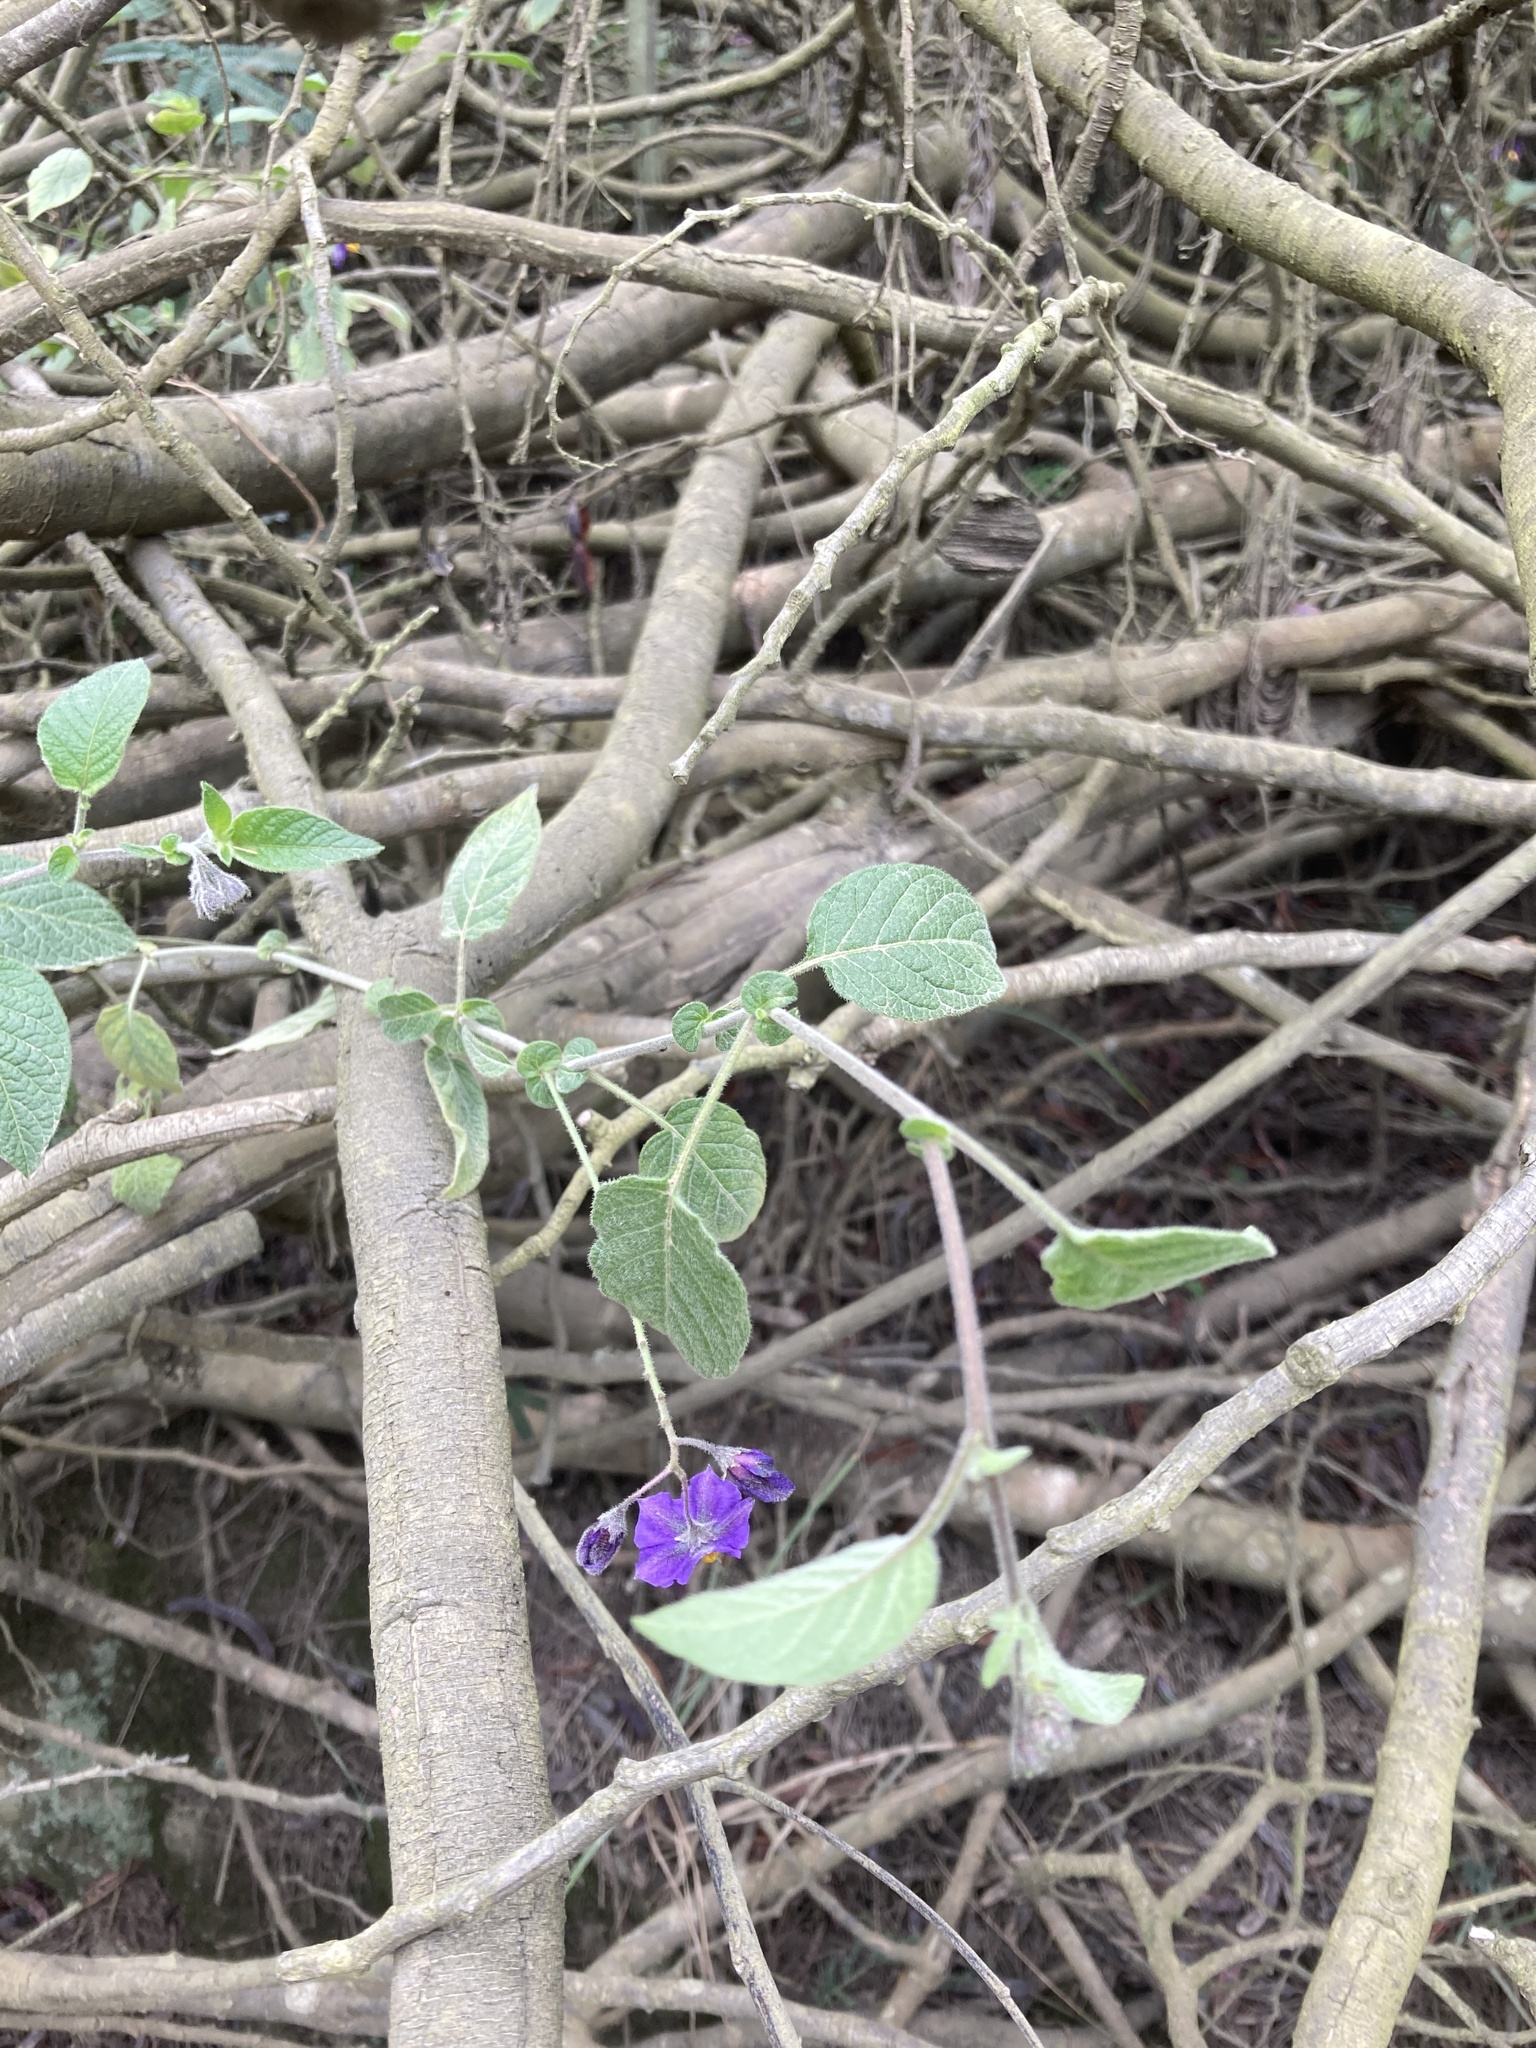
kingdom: Plantae
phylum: Tracheophyta
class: Magnoliopsida
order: Solanales
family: Solanaceae
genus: Solanum
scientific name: Solanum caripense
